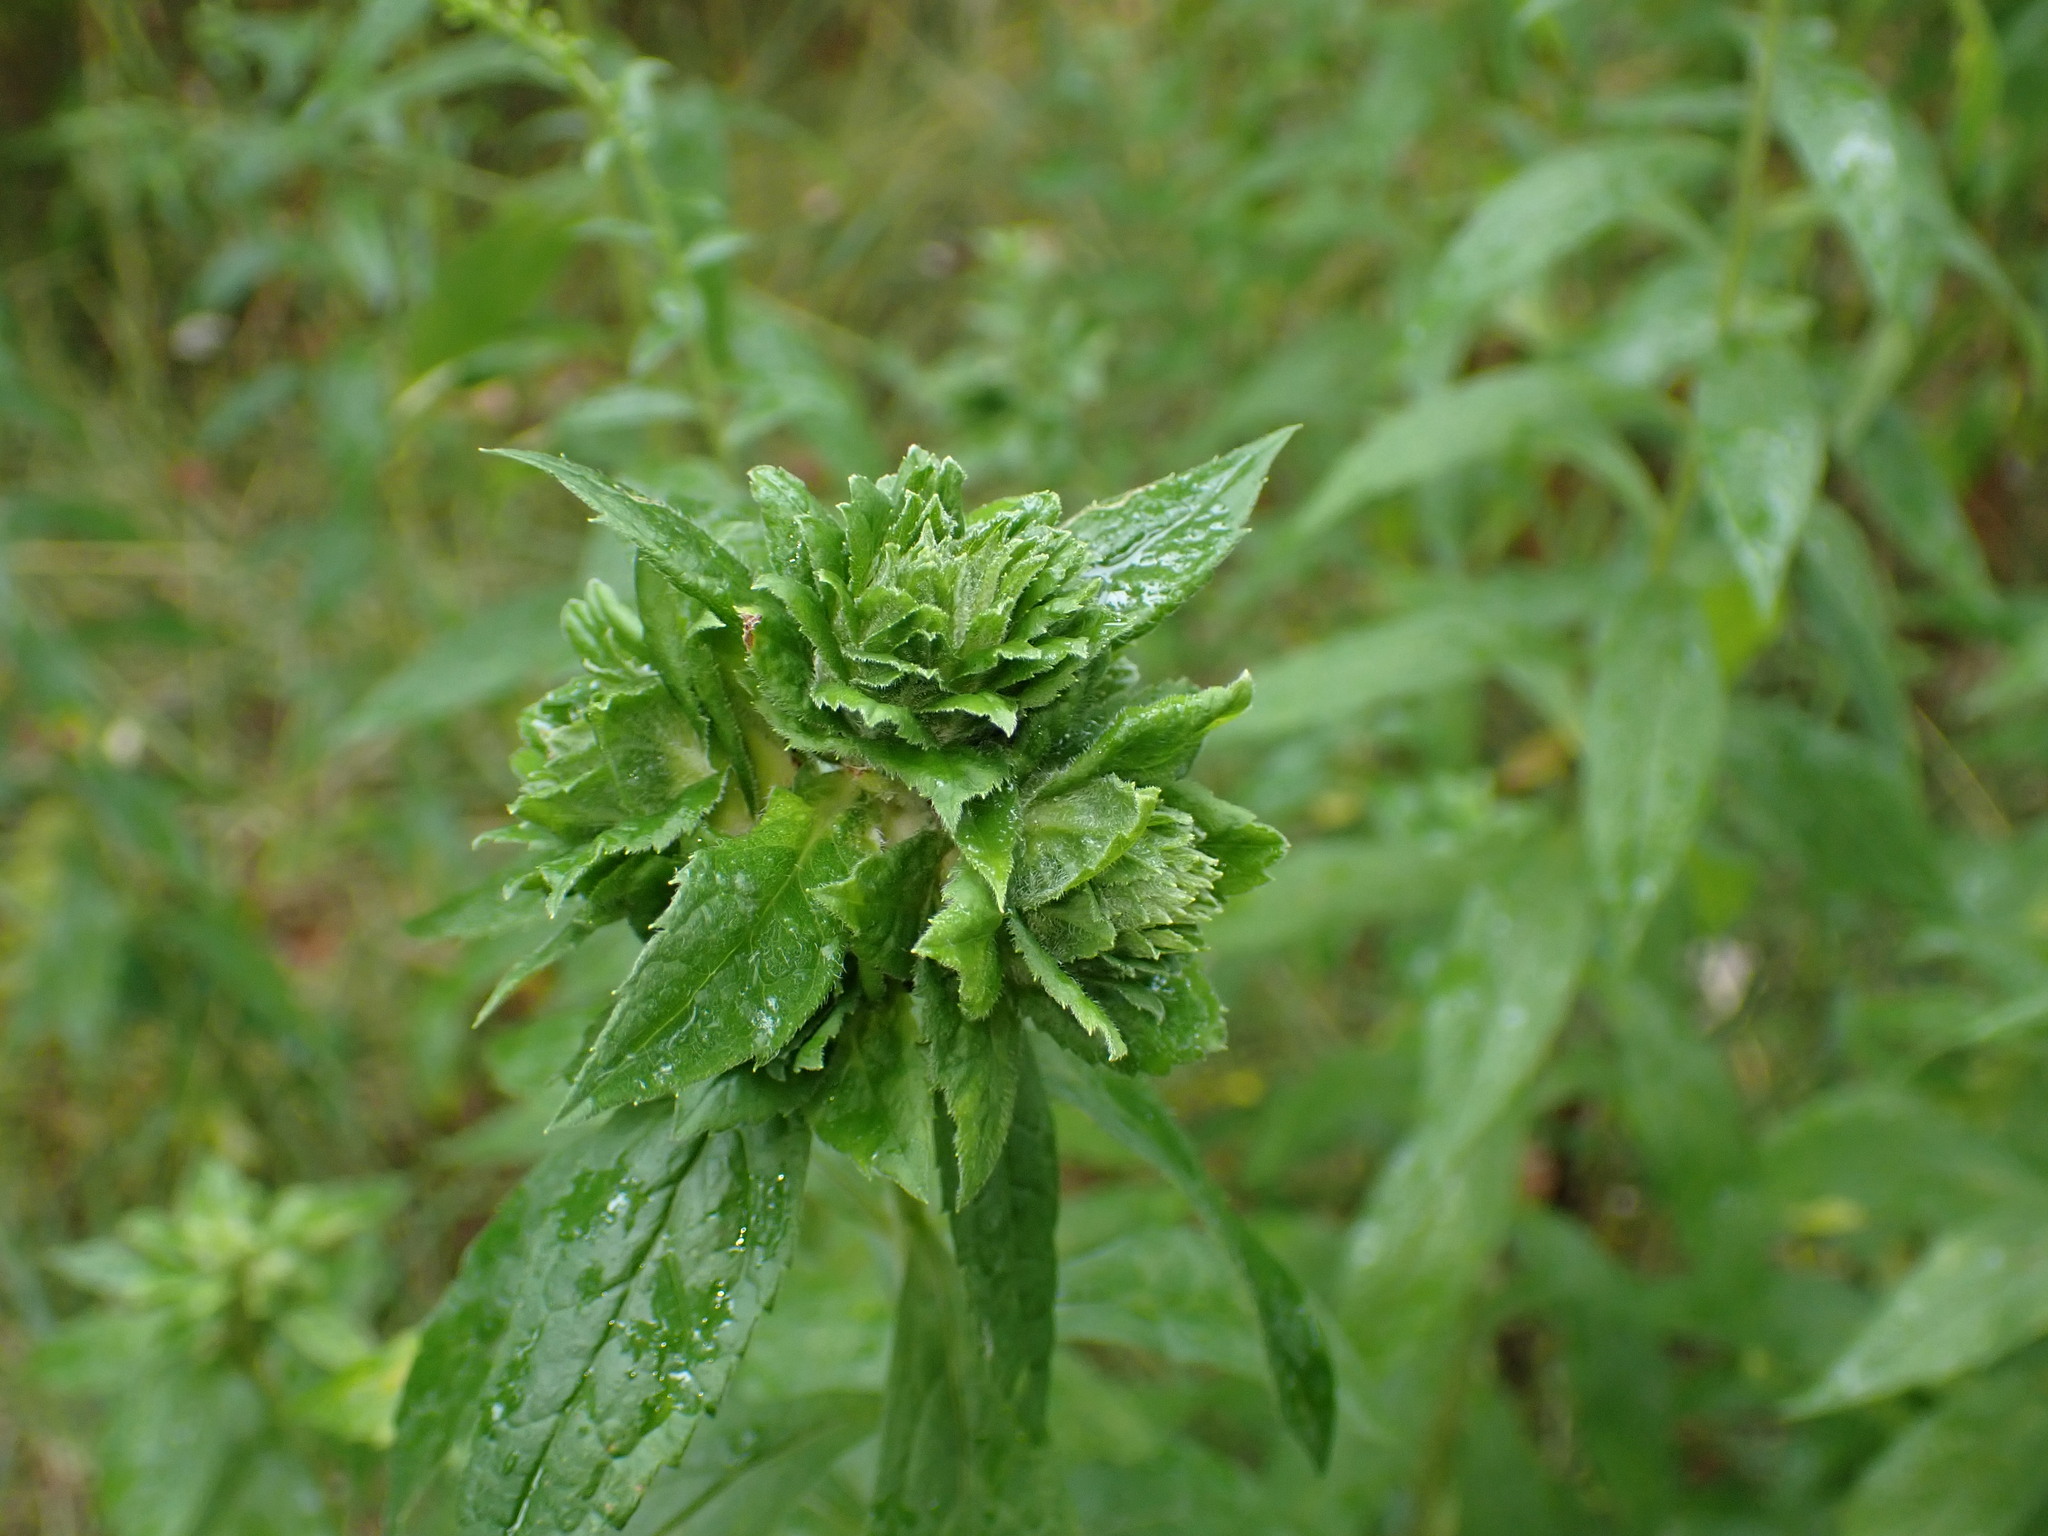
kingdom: Animalia
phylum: Arthropoda
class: Insecta
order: Diptera
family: Tephritidae
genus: Procecidochares
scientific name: Procecidochares atra
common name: Goldenrod brussels sprout gall fly
